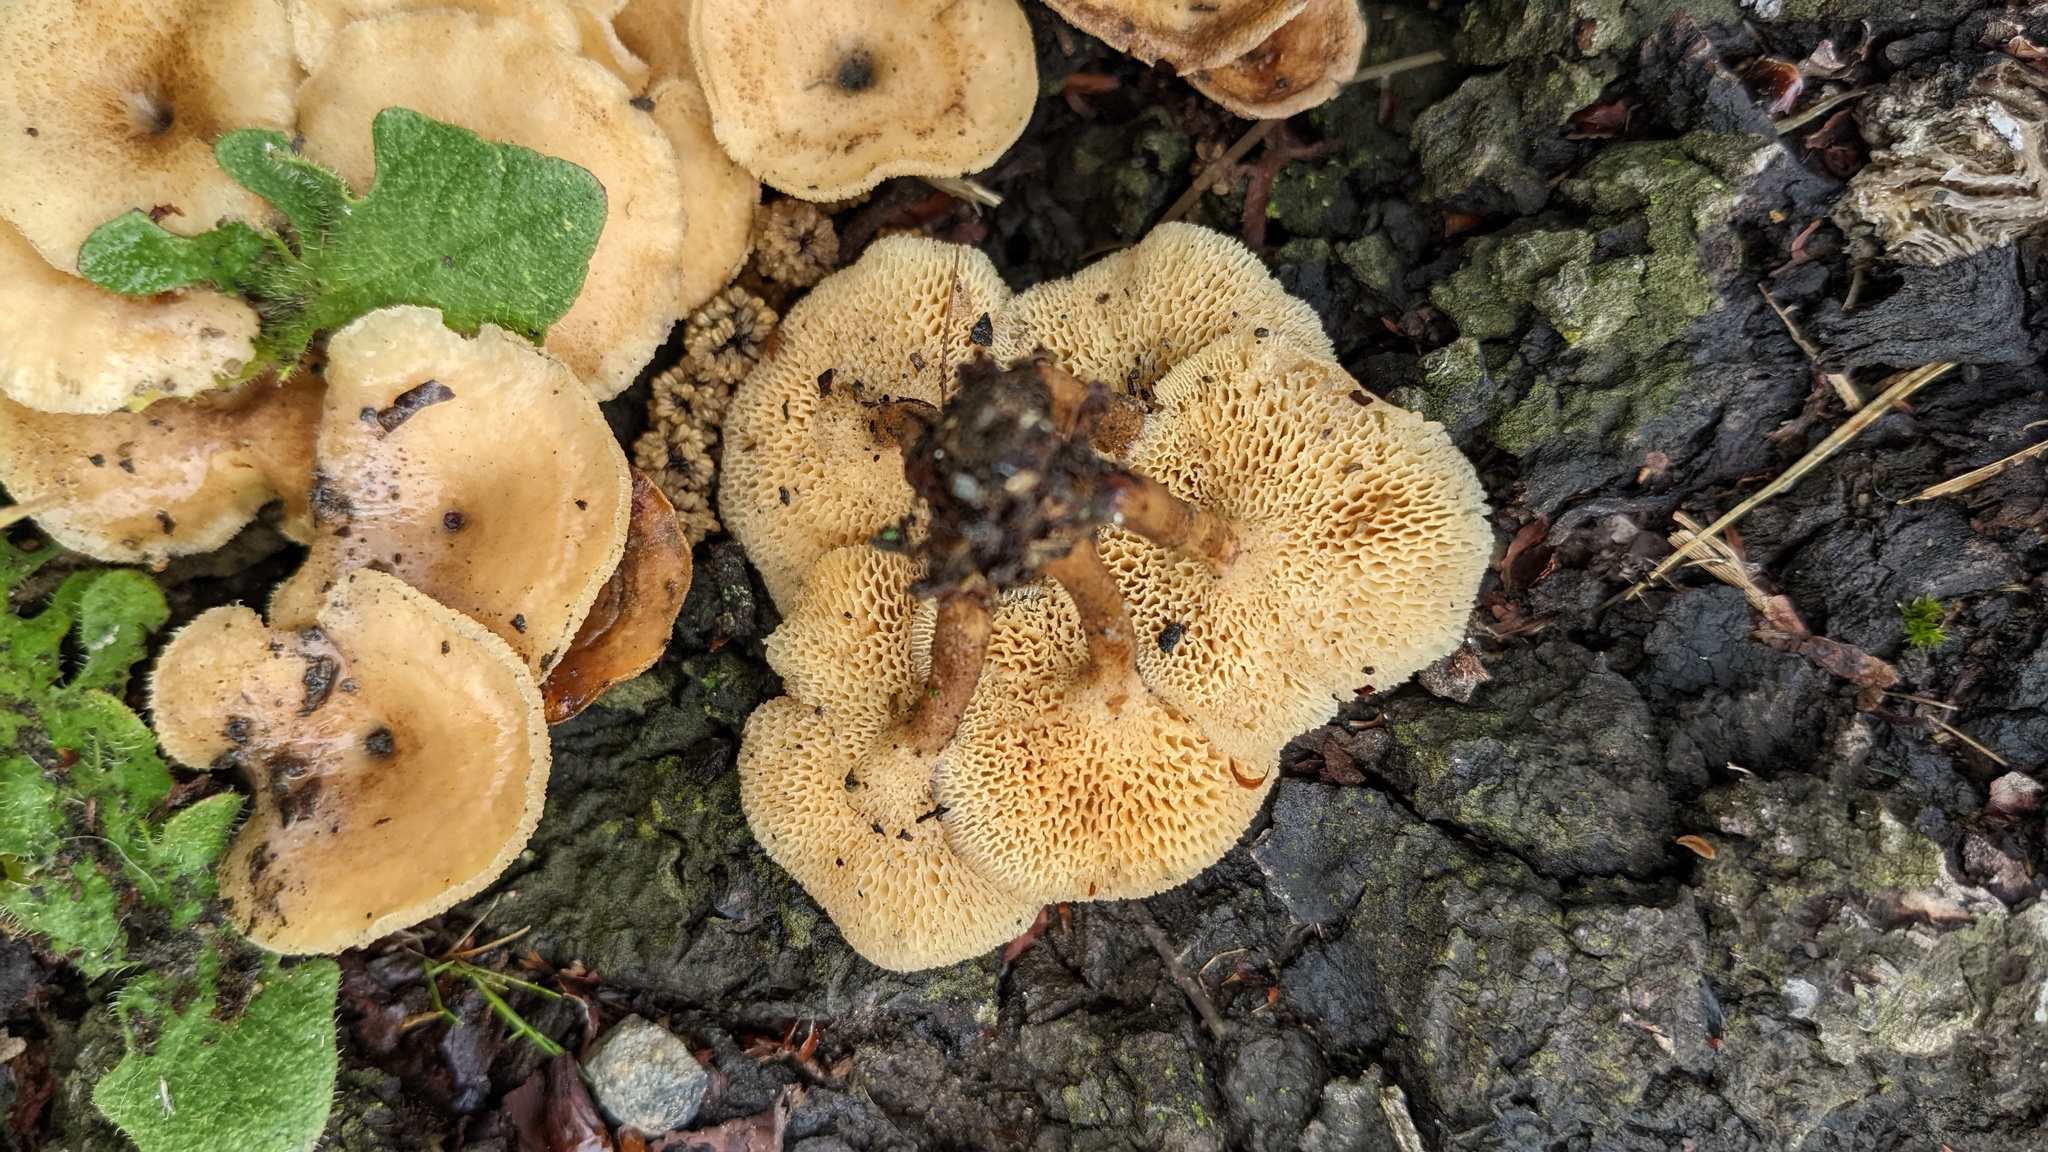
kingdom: Fungi
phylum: Basidiomycota
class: Agaricomycetes
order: Polyporales
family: Polyporaceae
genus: Lentinus
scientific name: Lentinus arcularius
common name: Spring polypore
